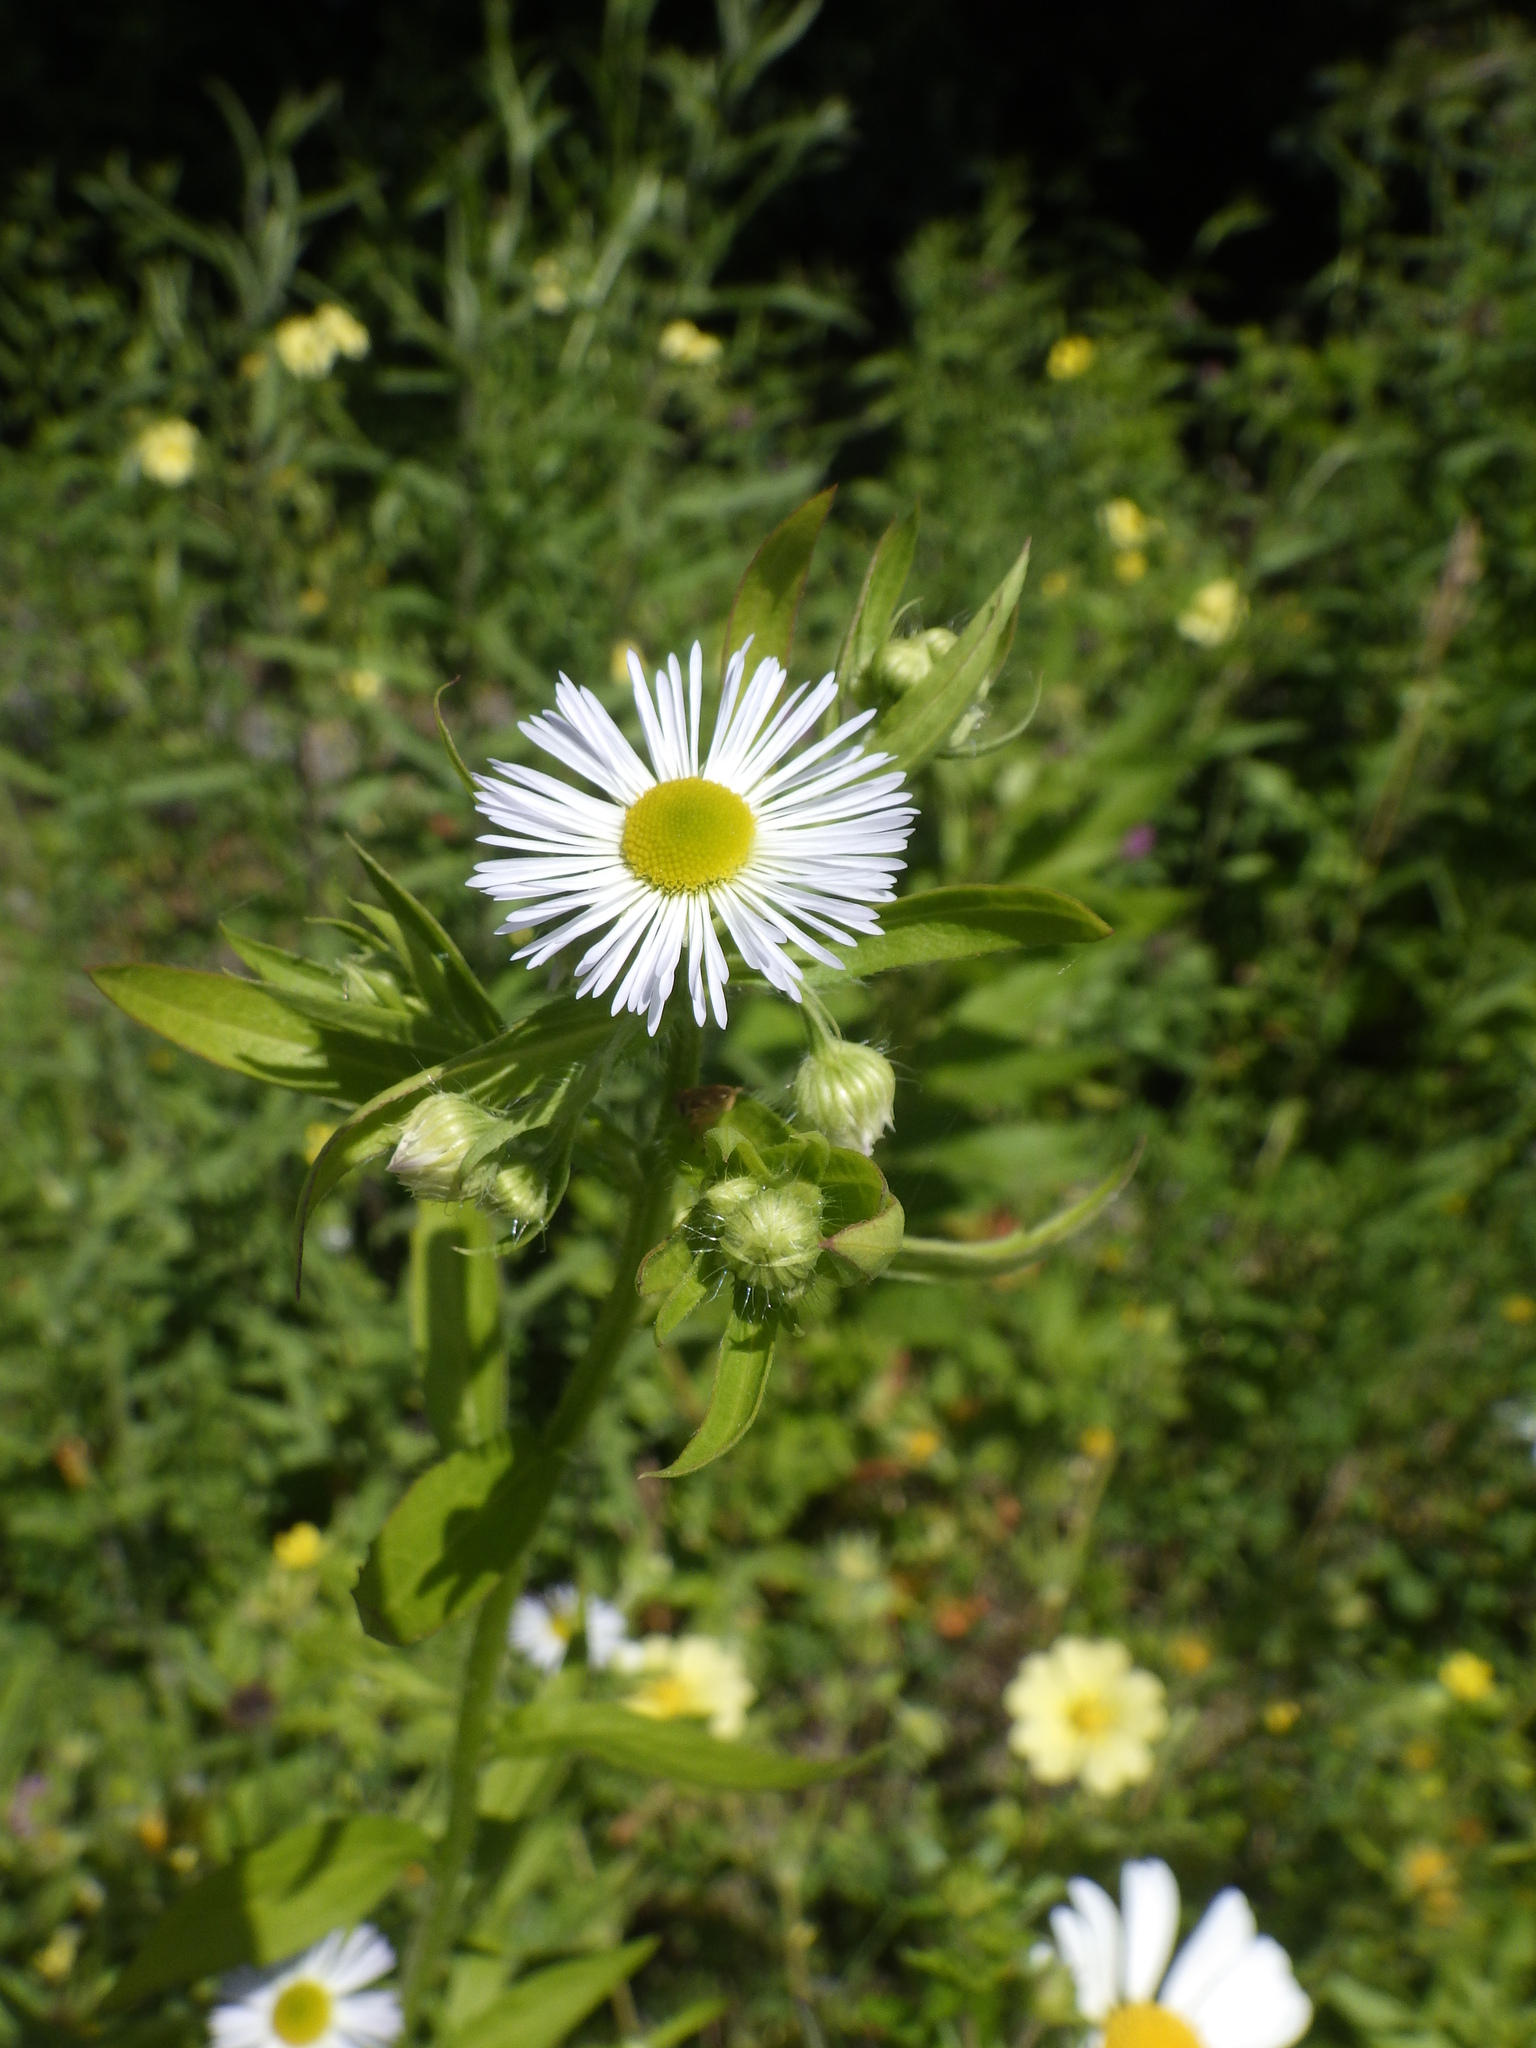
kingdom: Plantae
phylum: Tracheophyta
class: Magnoliopsida
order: Asterales
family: Asteraceae
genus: Erigeron
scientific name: Erigeron annuus
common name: Tall fleabane
